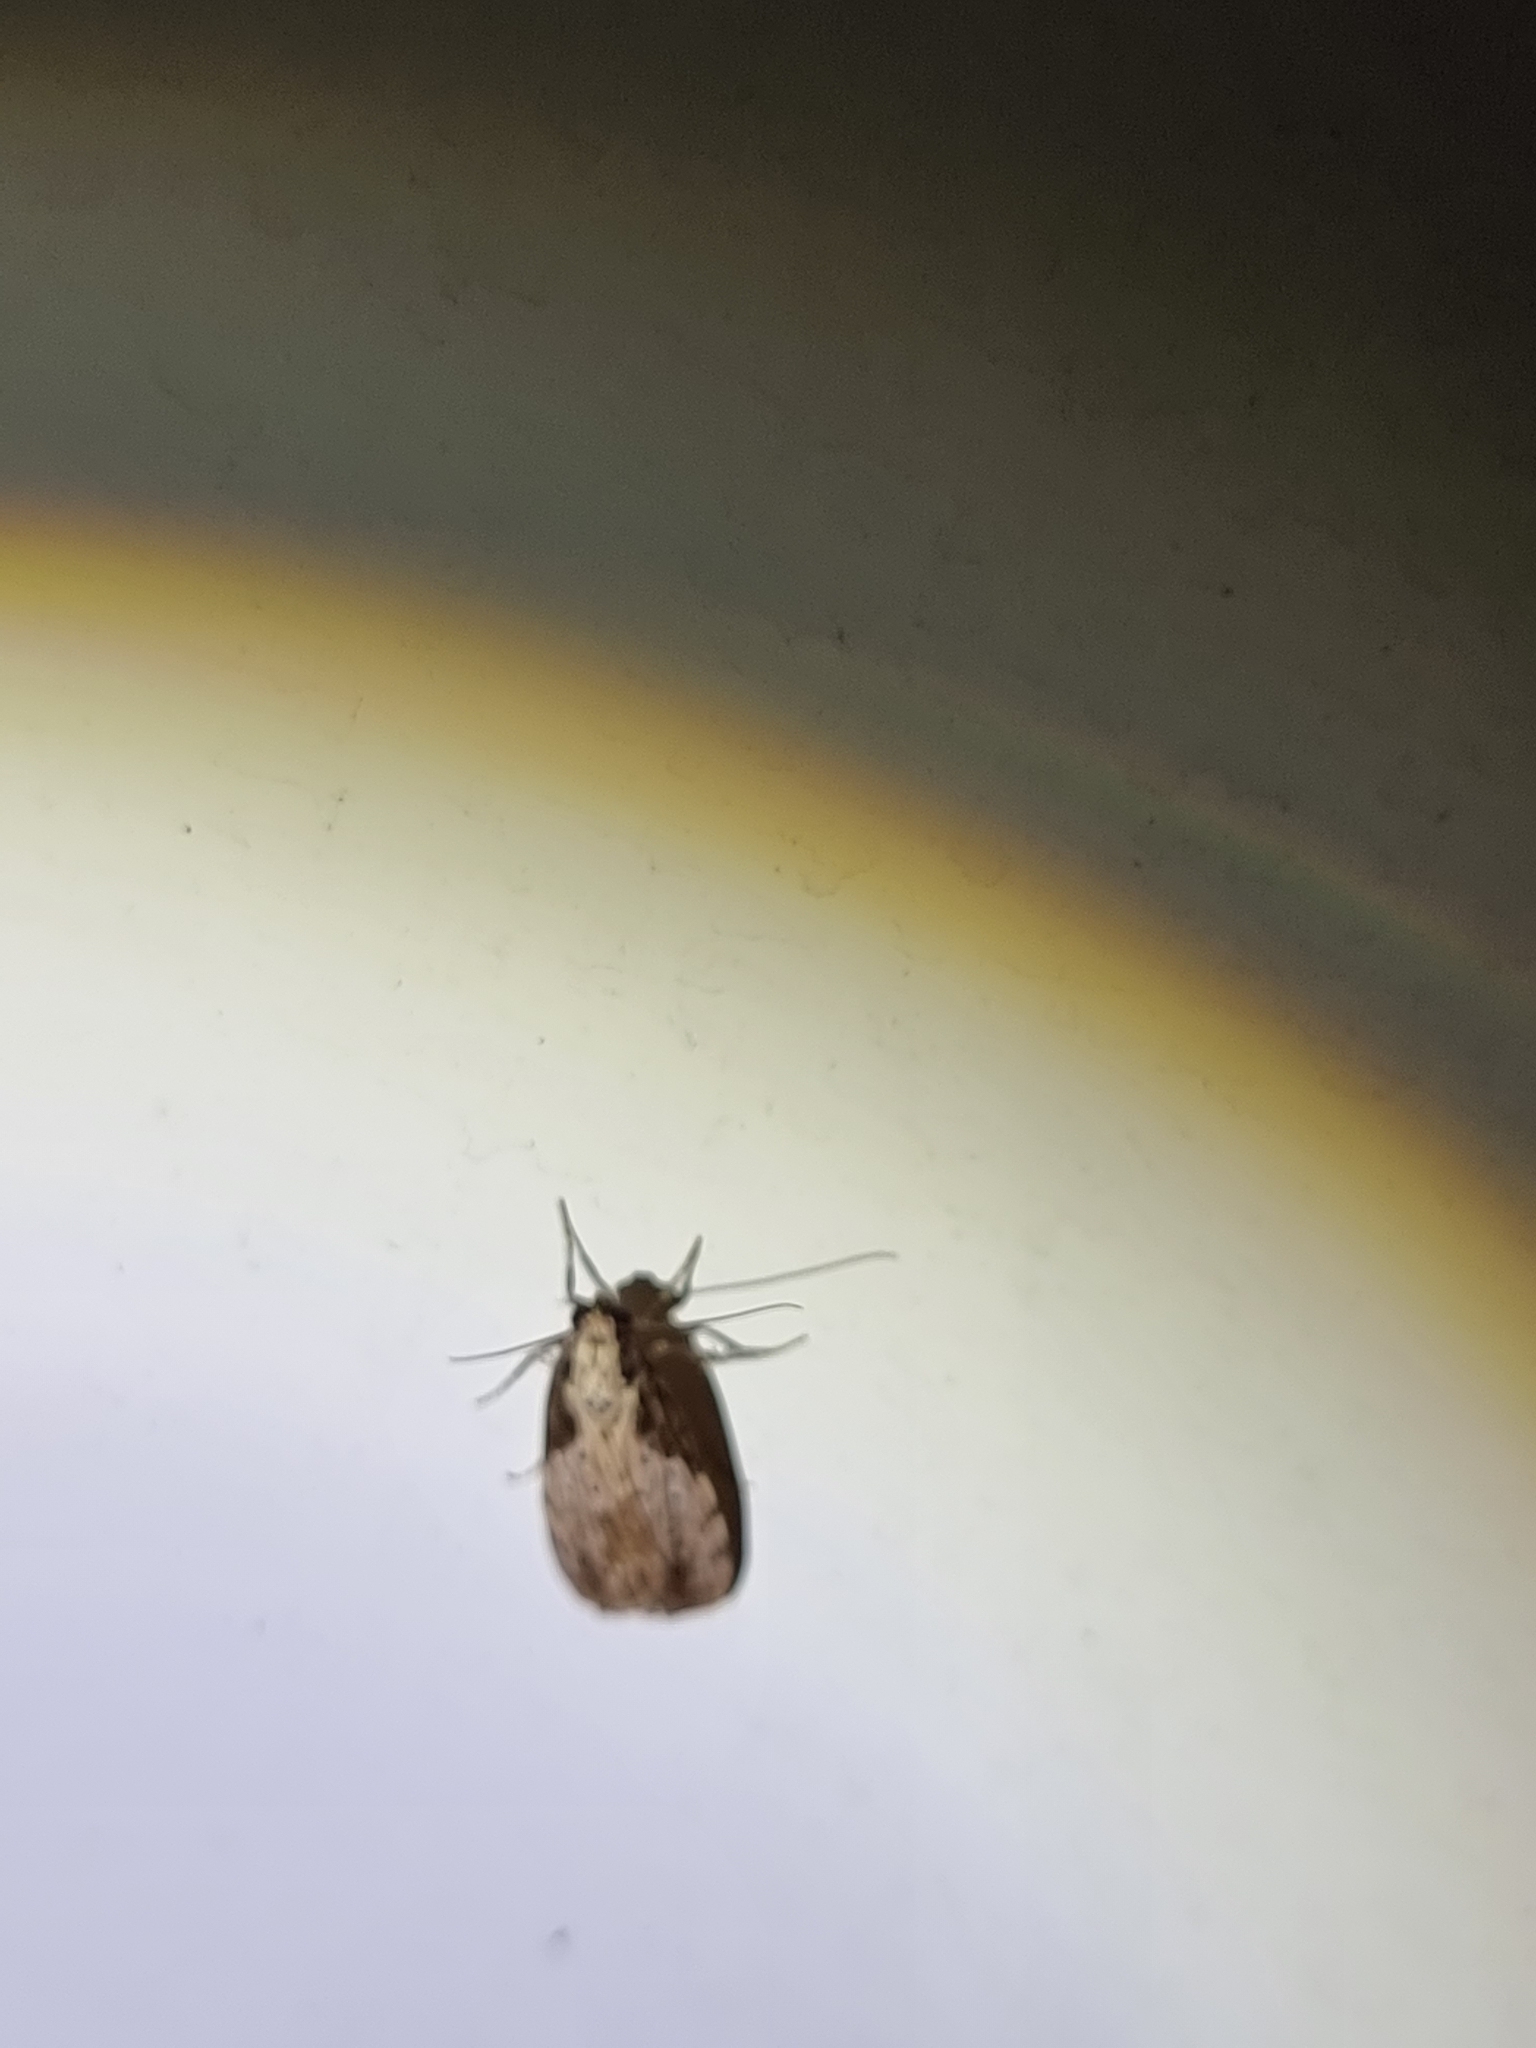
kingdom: Animalia
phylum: Arthropoda
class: Insecta
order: Lepidoptera
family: Erebidae
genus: Digama
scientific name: Digama Sommeria marmorea
